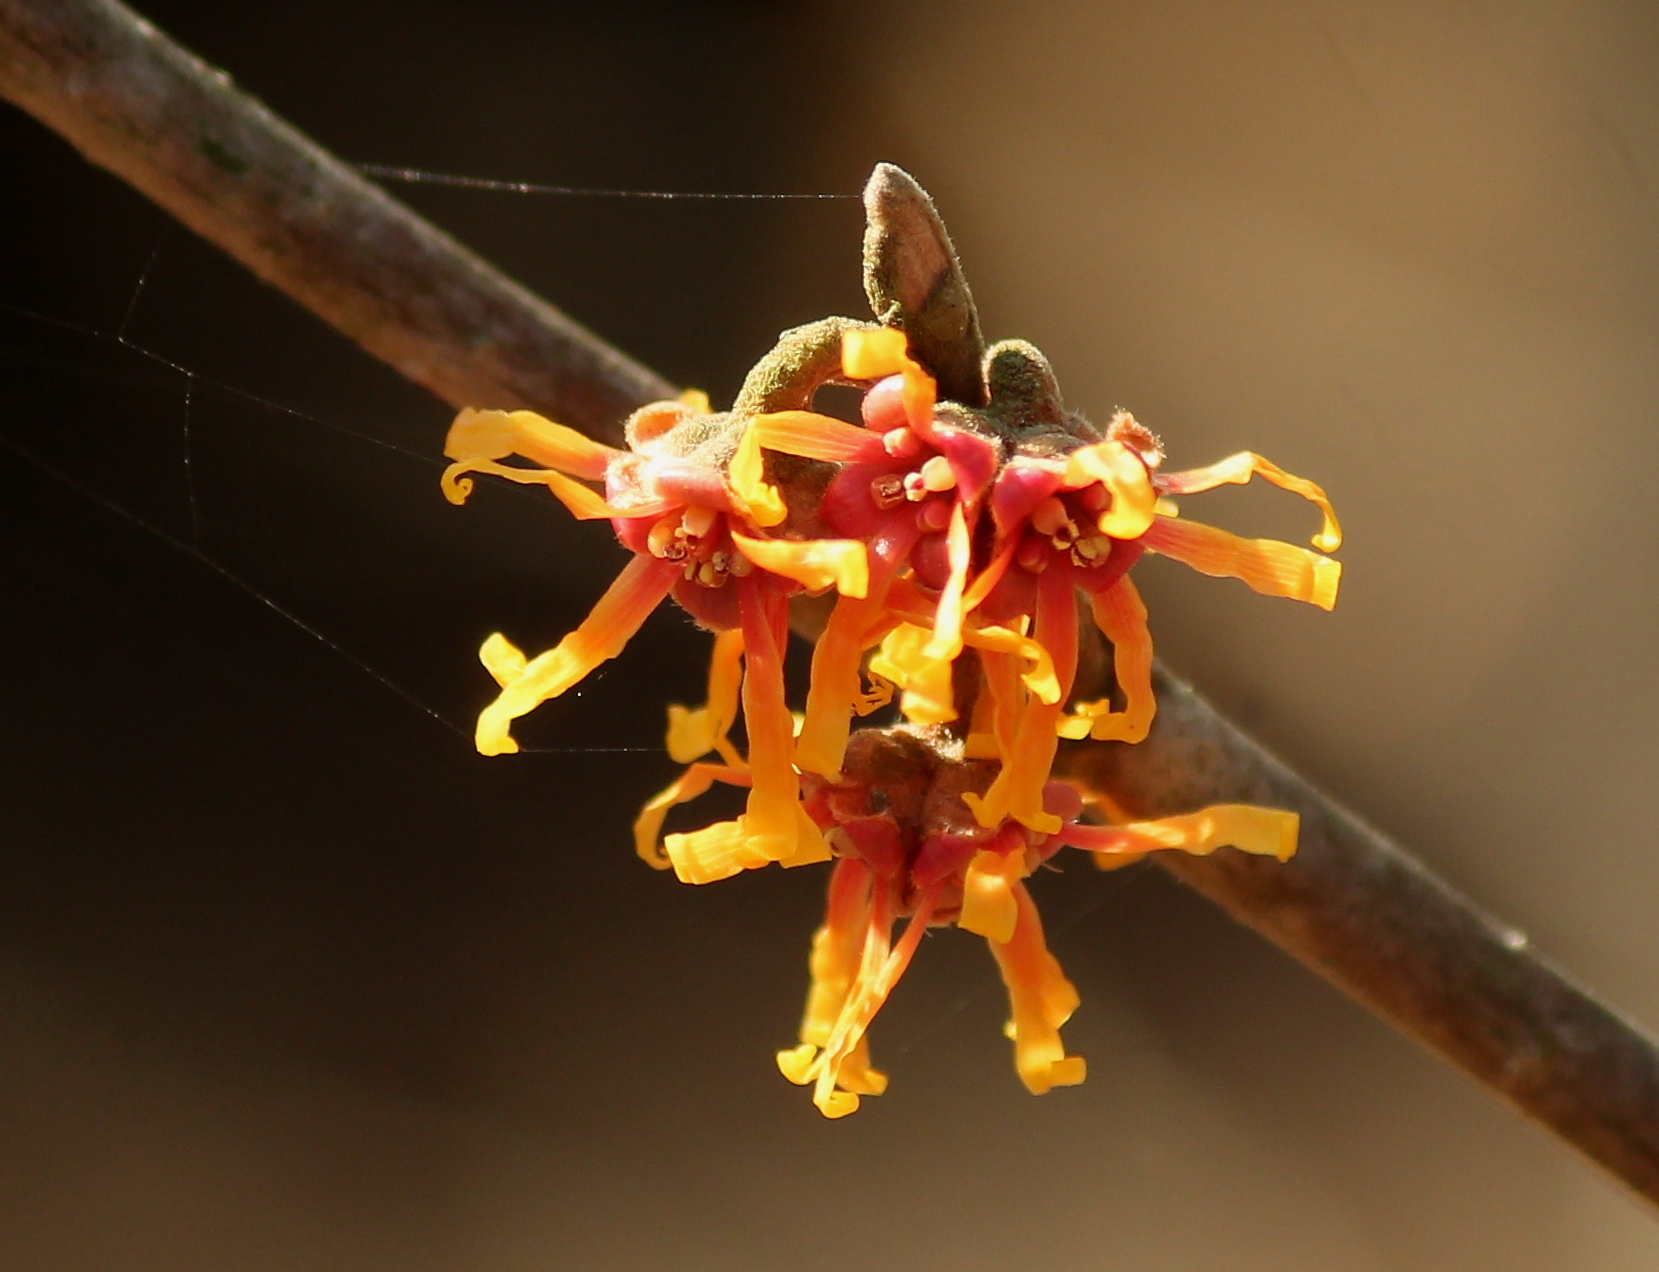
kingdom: Plantae
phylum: Tracheophyta
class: Magnoliopsida
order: Saxifragales
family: Hamamelidaceae
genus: Hamamelis
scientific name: Hamamelis vernalis
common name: Ozark witch-hazel
